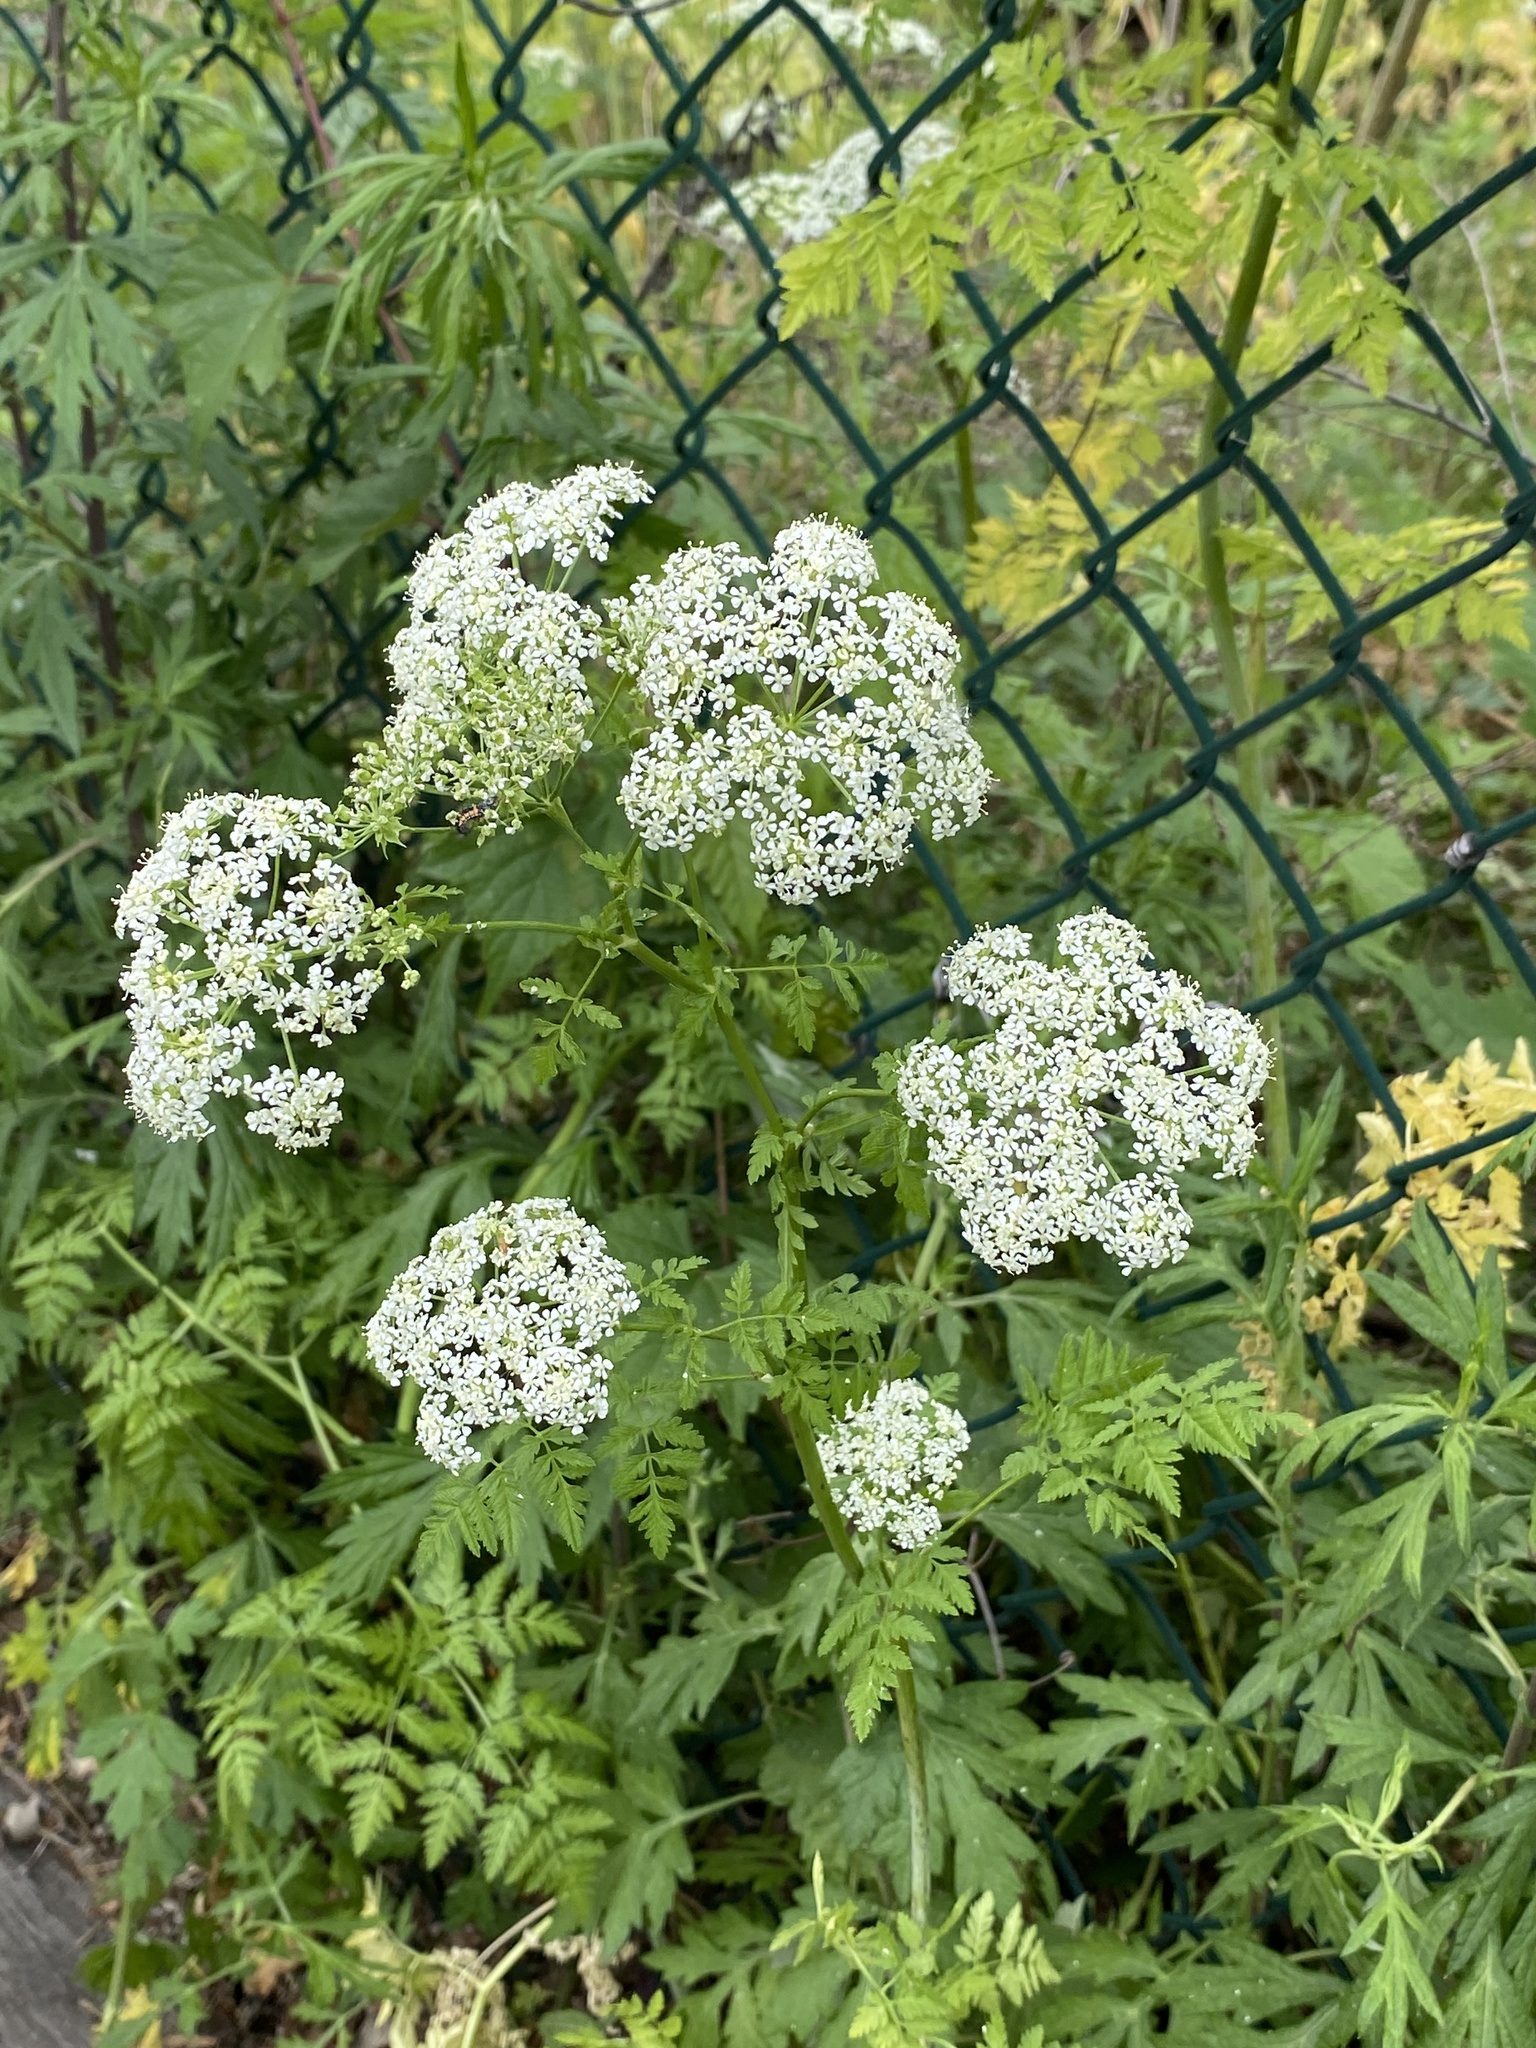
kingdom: Plantae
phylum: Tracheophyta
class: Magnoliopsida
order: Apiales
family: Apiaceae
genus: Conium
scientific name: Conium maculatum
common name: Hemlock
